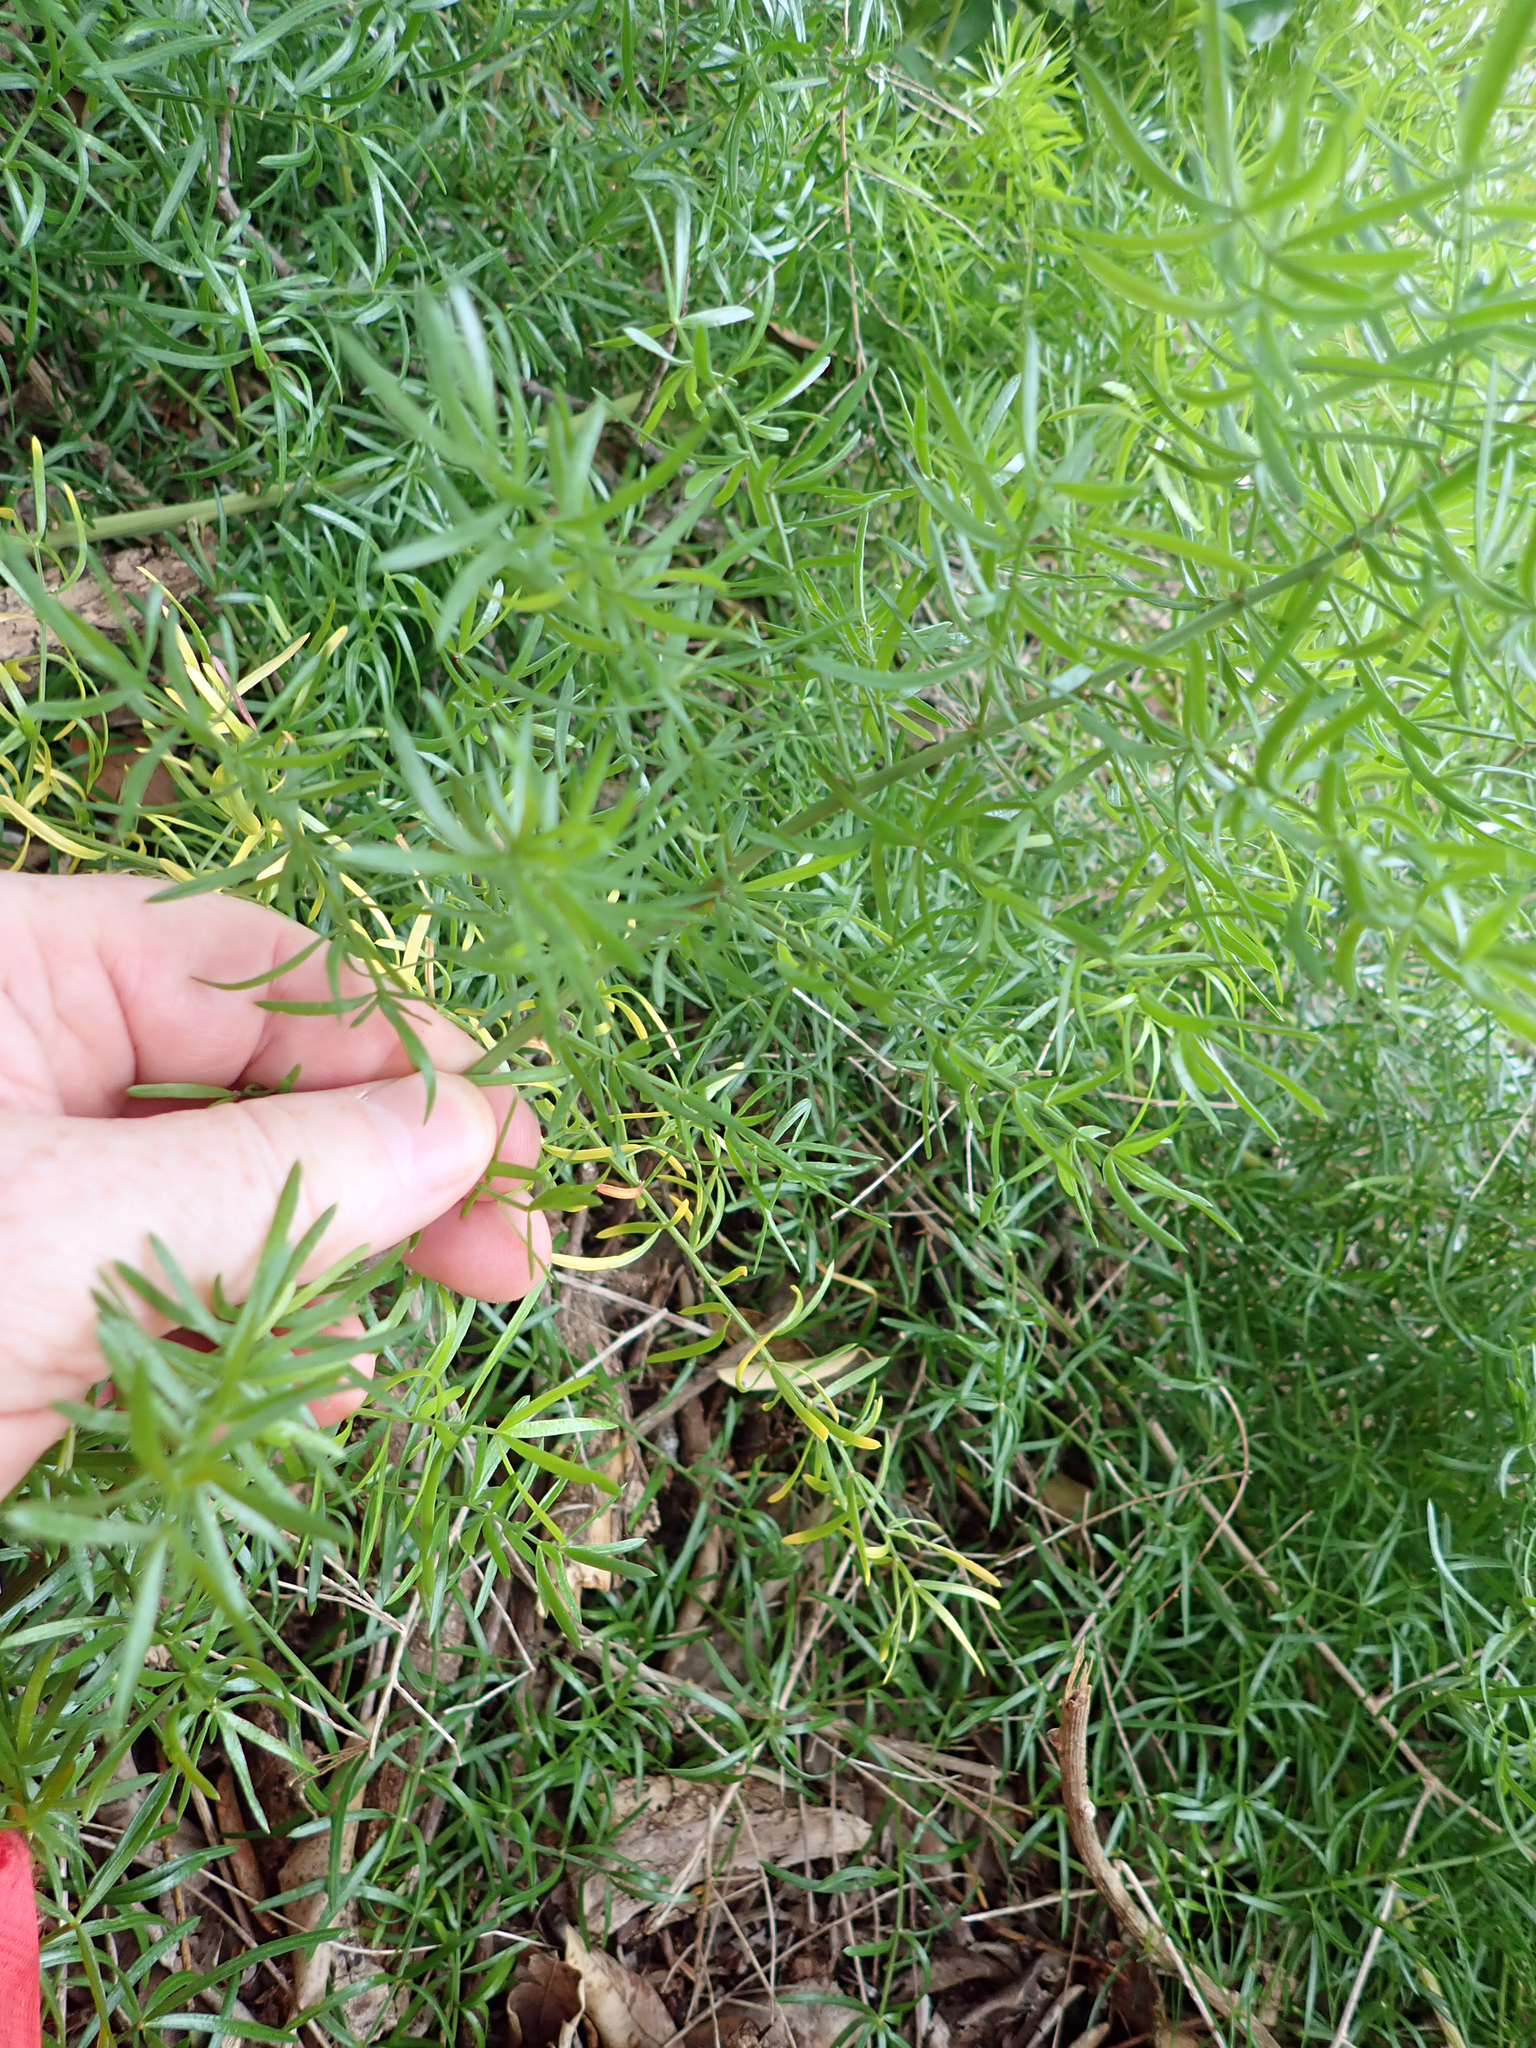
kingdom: Plantae
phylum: Tracheophyta
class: Liliopsida
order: Asparagales
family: Asparagaceae
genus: Asparagus
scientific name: Asparagus aethiopicus
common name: Sprenger's asparagus fern
